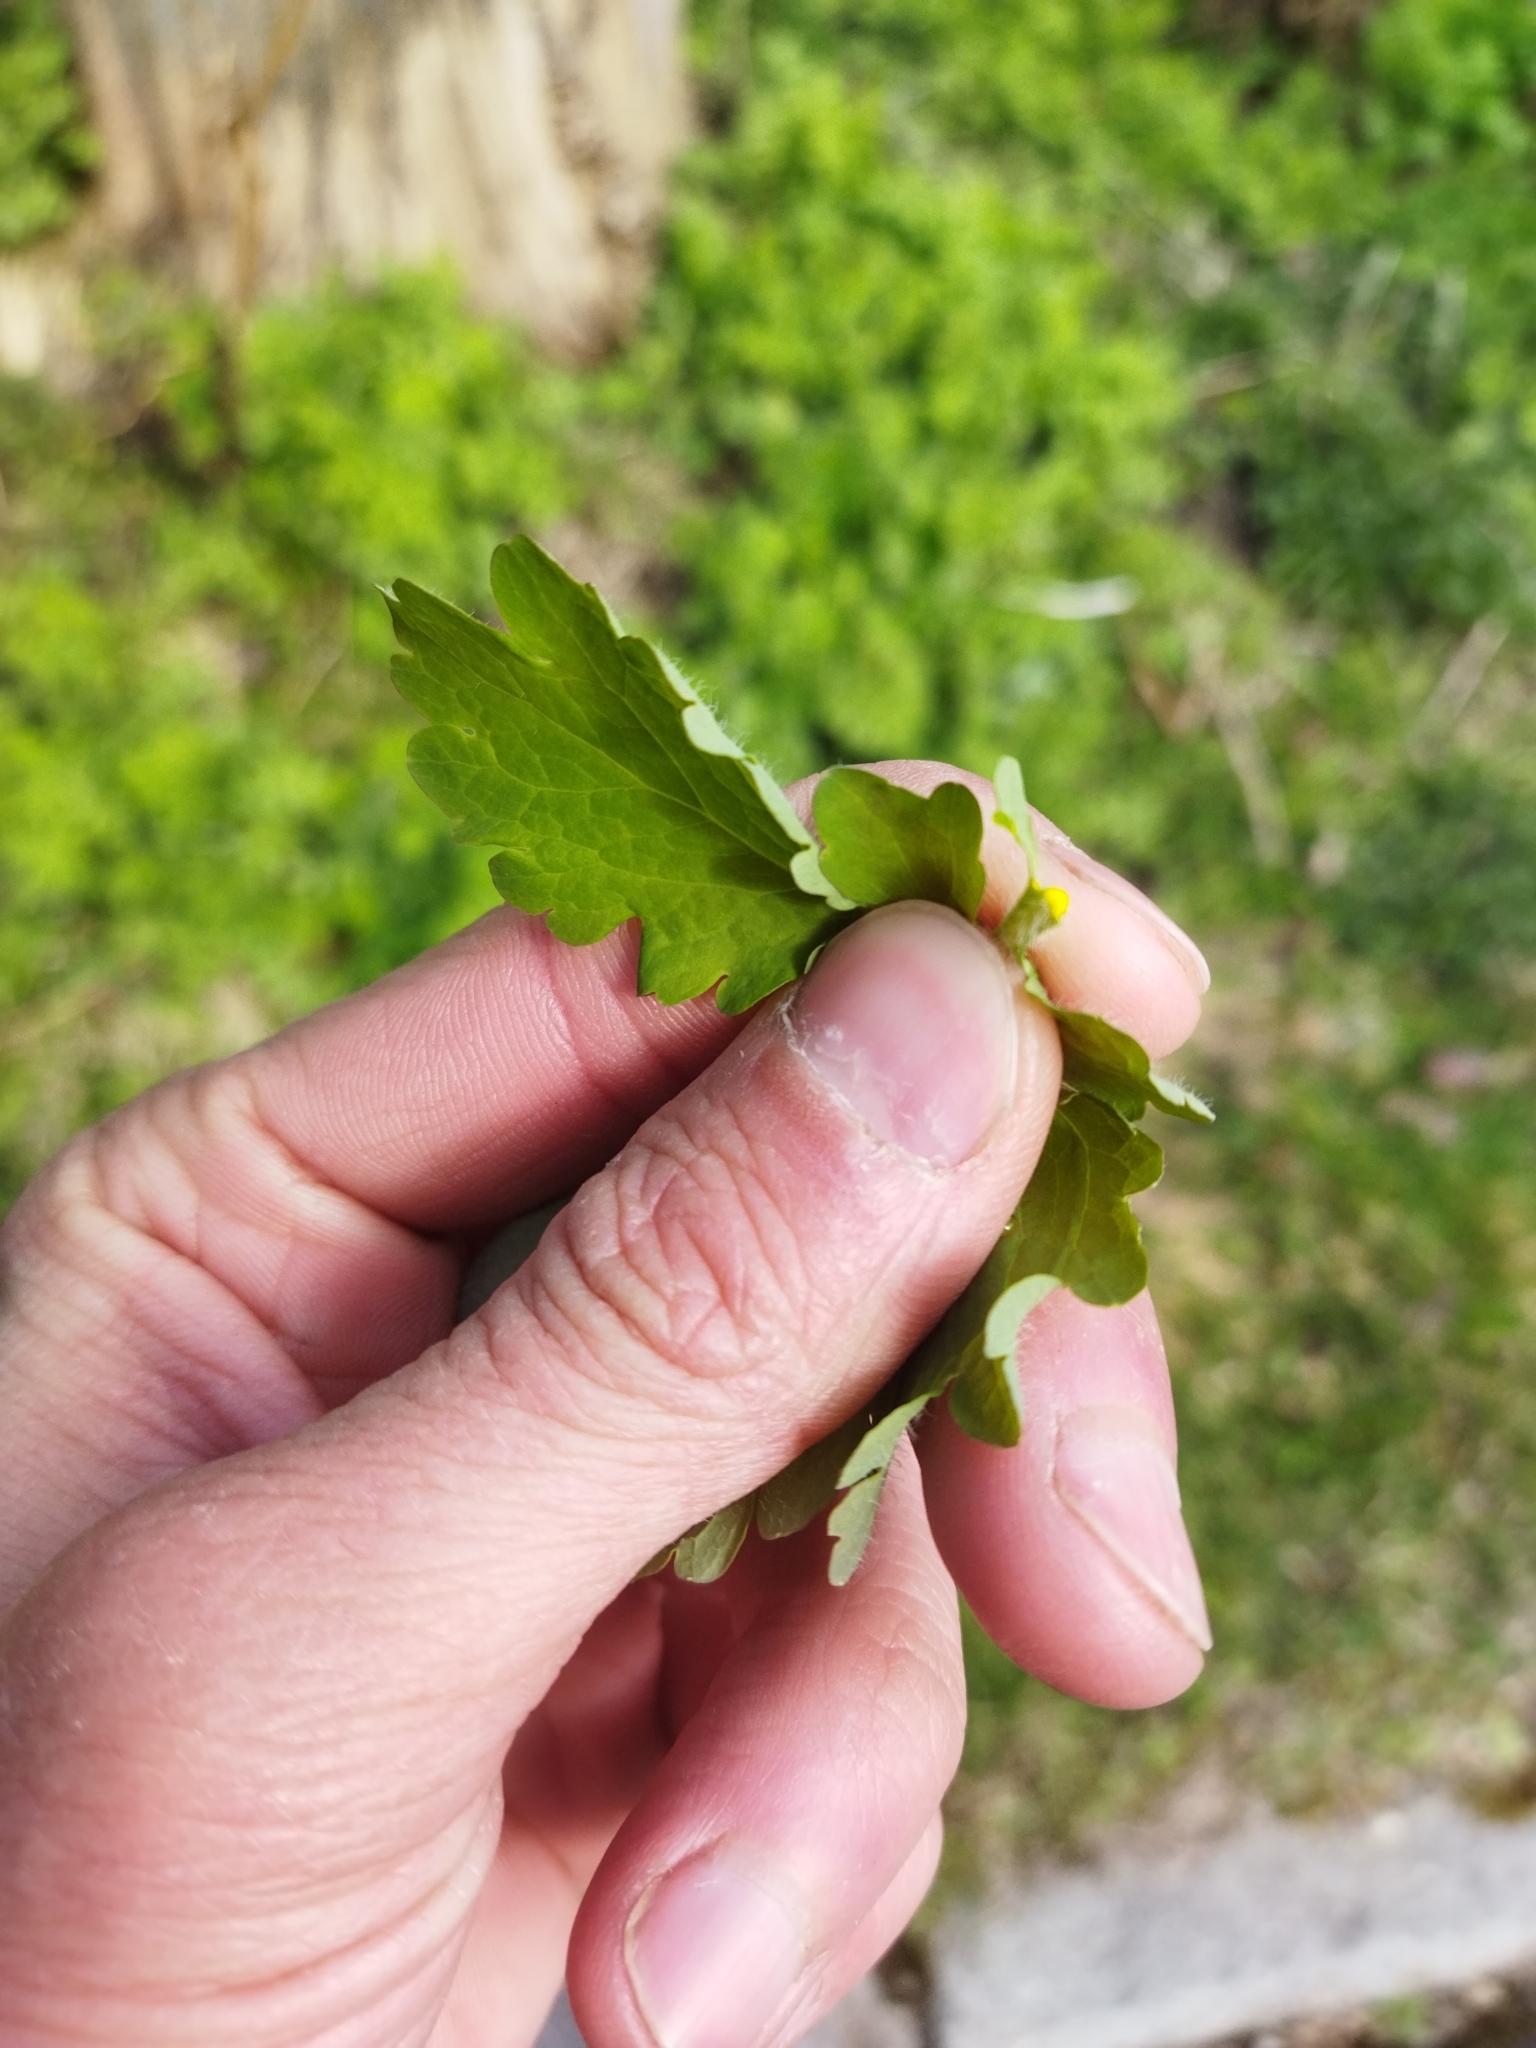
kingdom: Plantae
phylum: Tracheophyta
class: Magnoliopsida
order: Ranunculales
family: Papaveraceae
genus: Chelidonium
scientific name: Chelidonium majus
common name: Greater celandine
